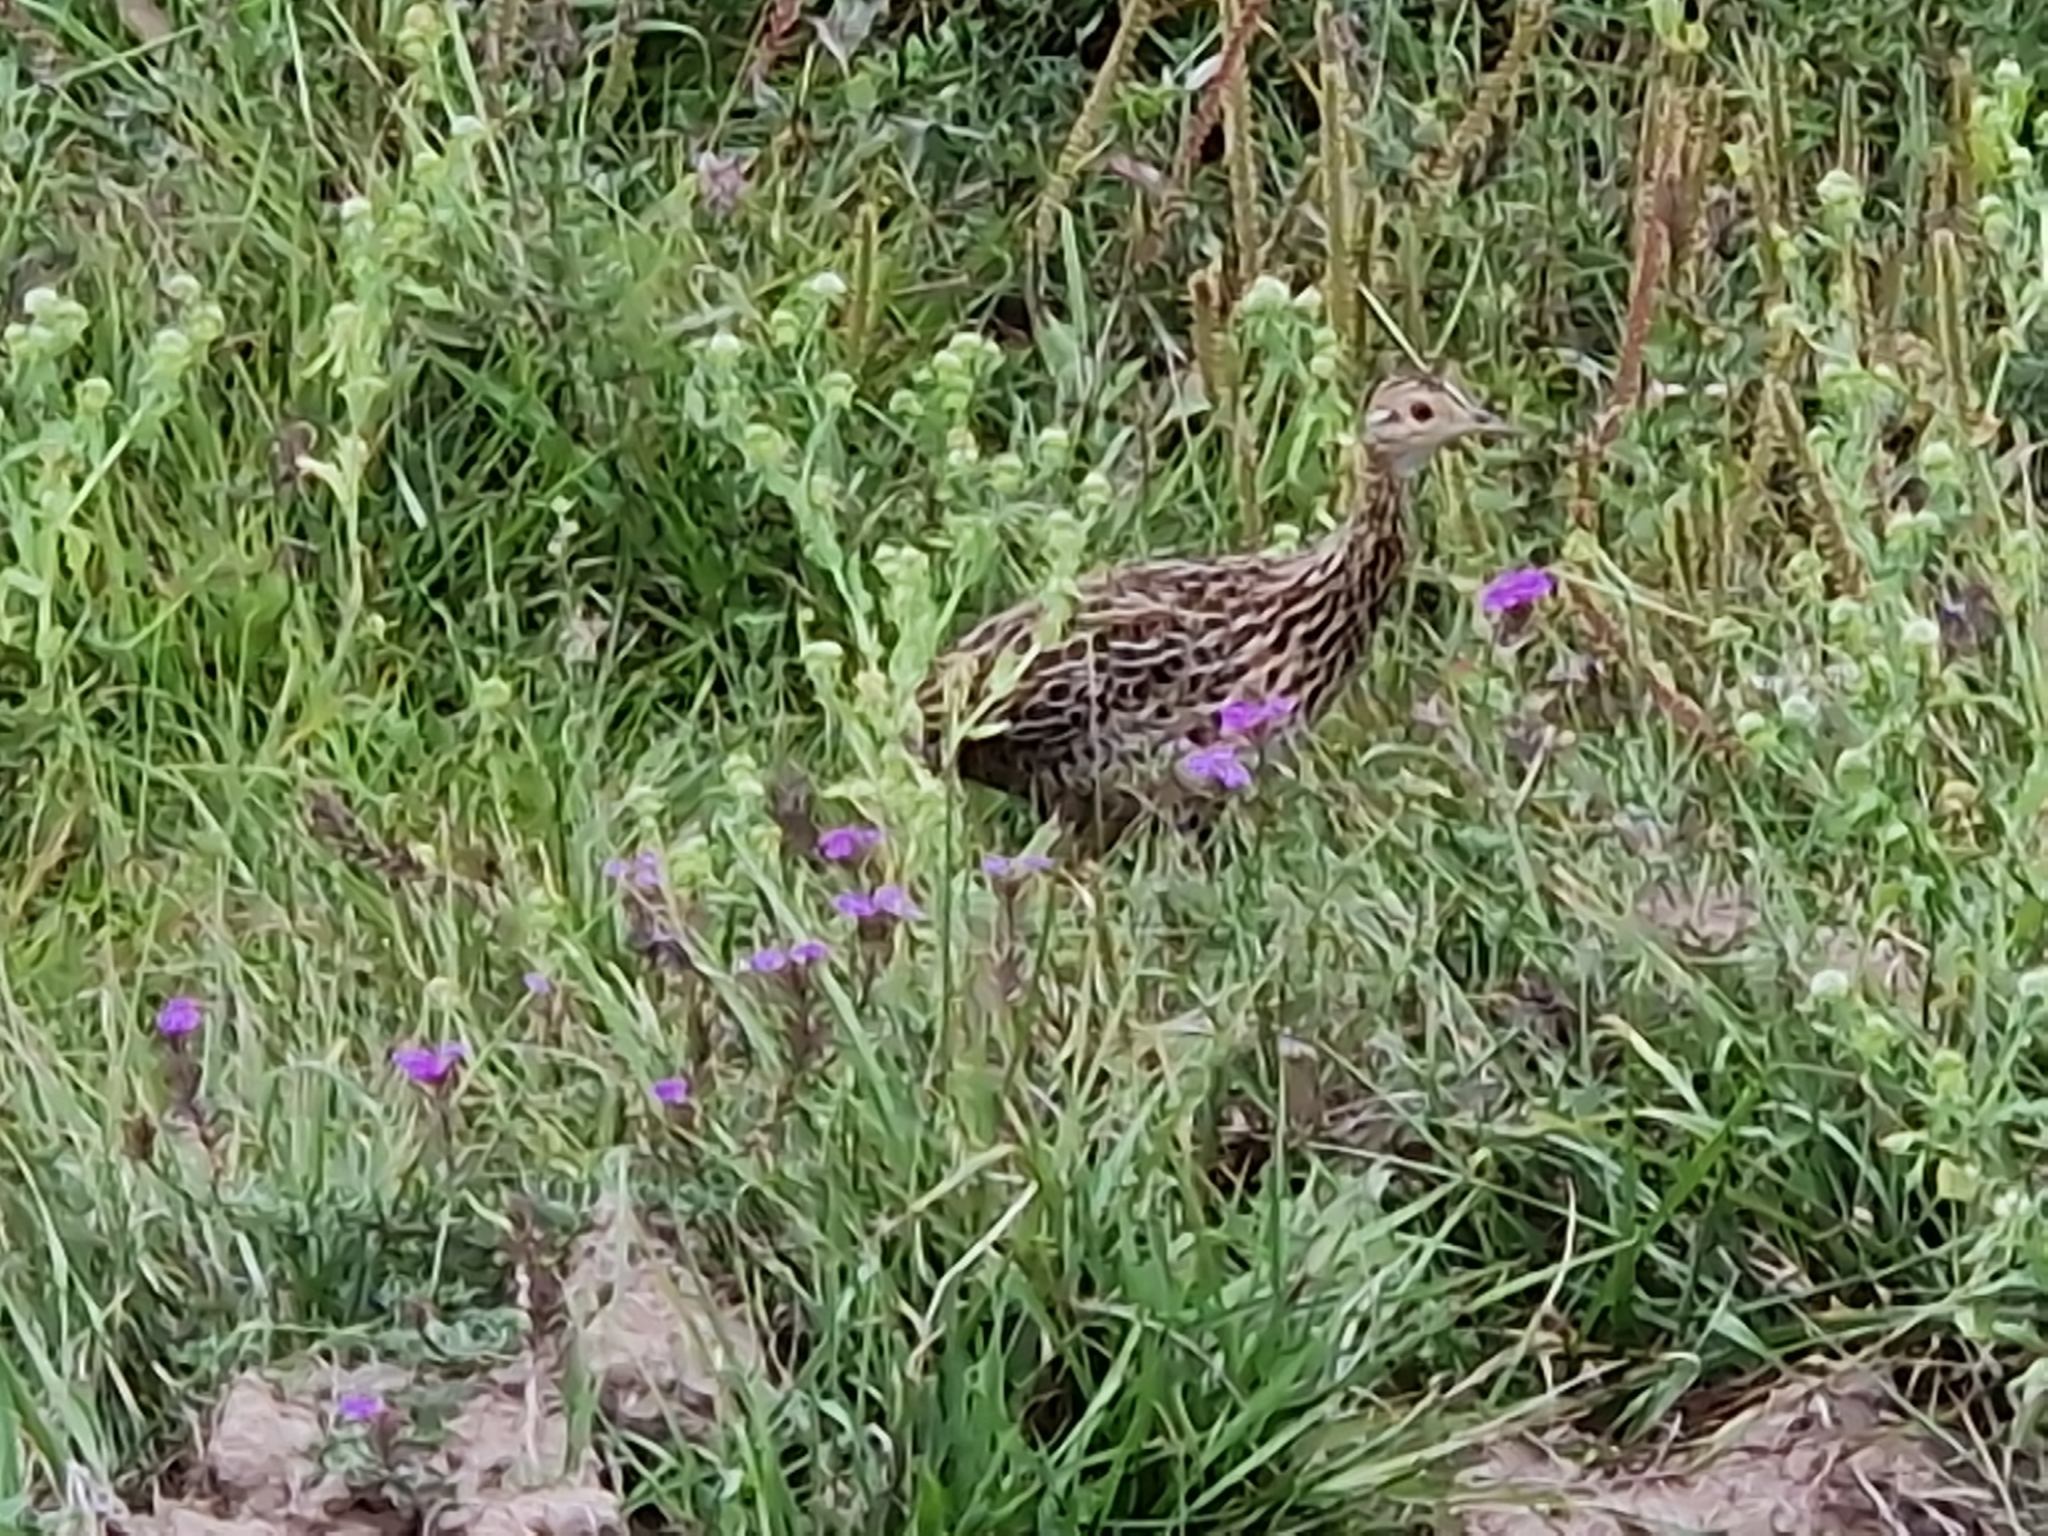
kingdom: Animalia
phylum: Chordata
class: Aves
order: Tinamiformes
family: Tinamidae
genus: Nothura
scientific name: Nothura maculosa
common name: Spotted nothura
